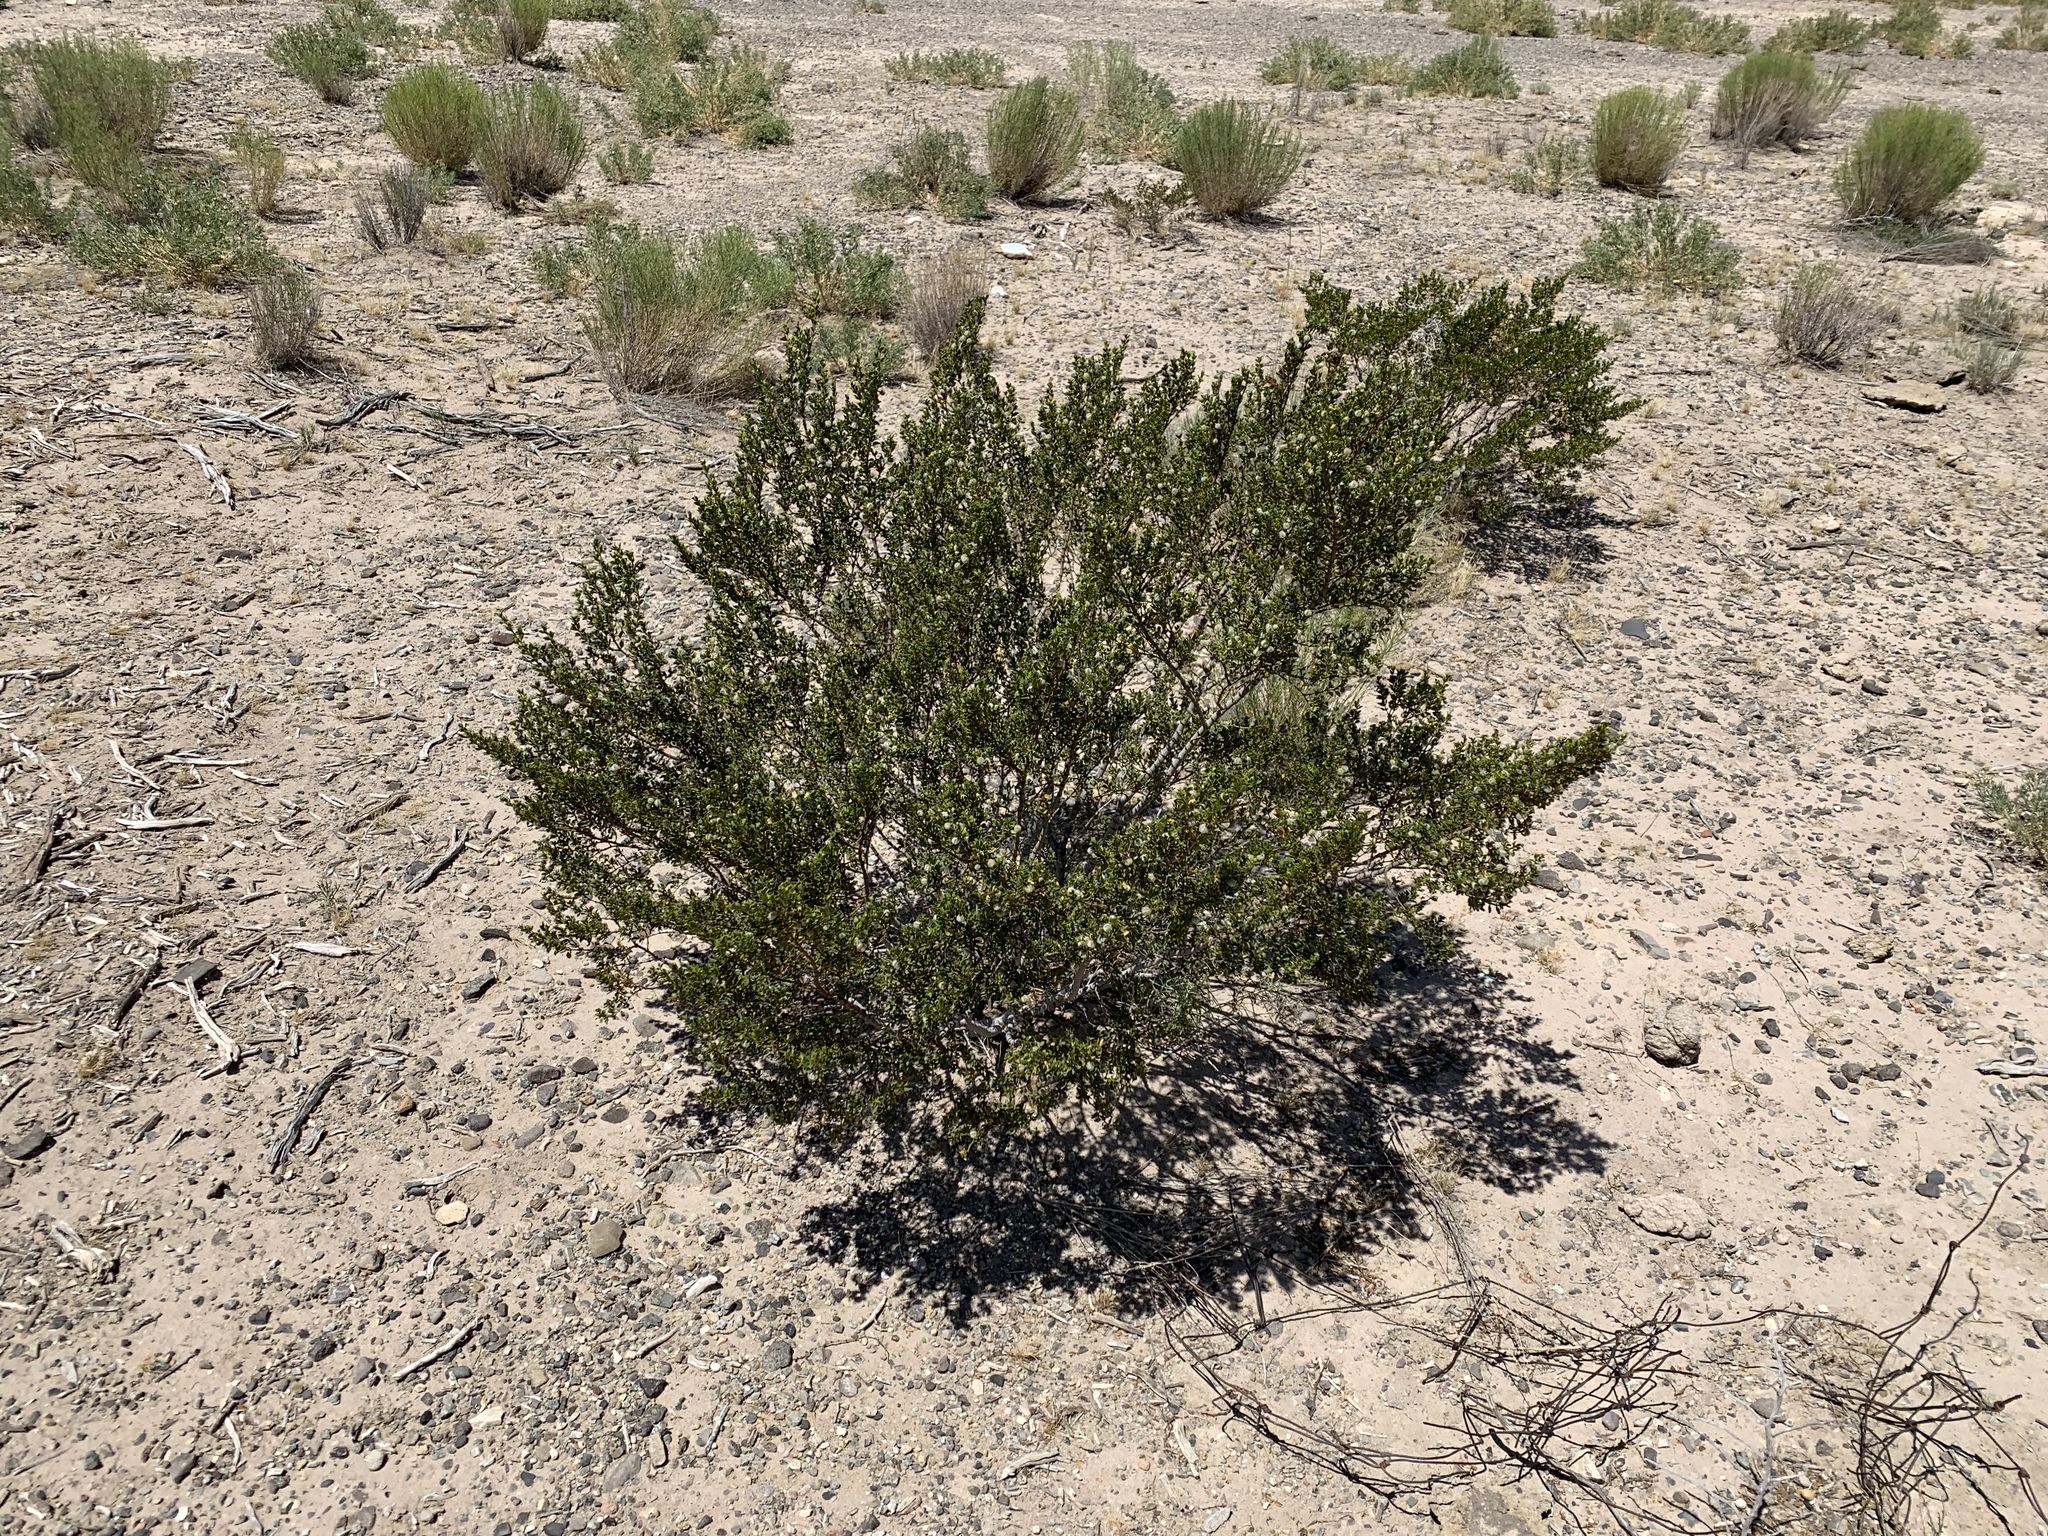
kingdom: Plantae
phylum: Tracheophyta
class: Magnoliopsida
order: Zygophyllales
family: Zygophyllaceae
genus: Larrea
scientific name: Larrea tridentata
